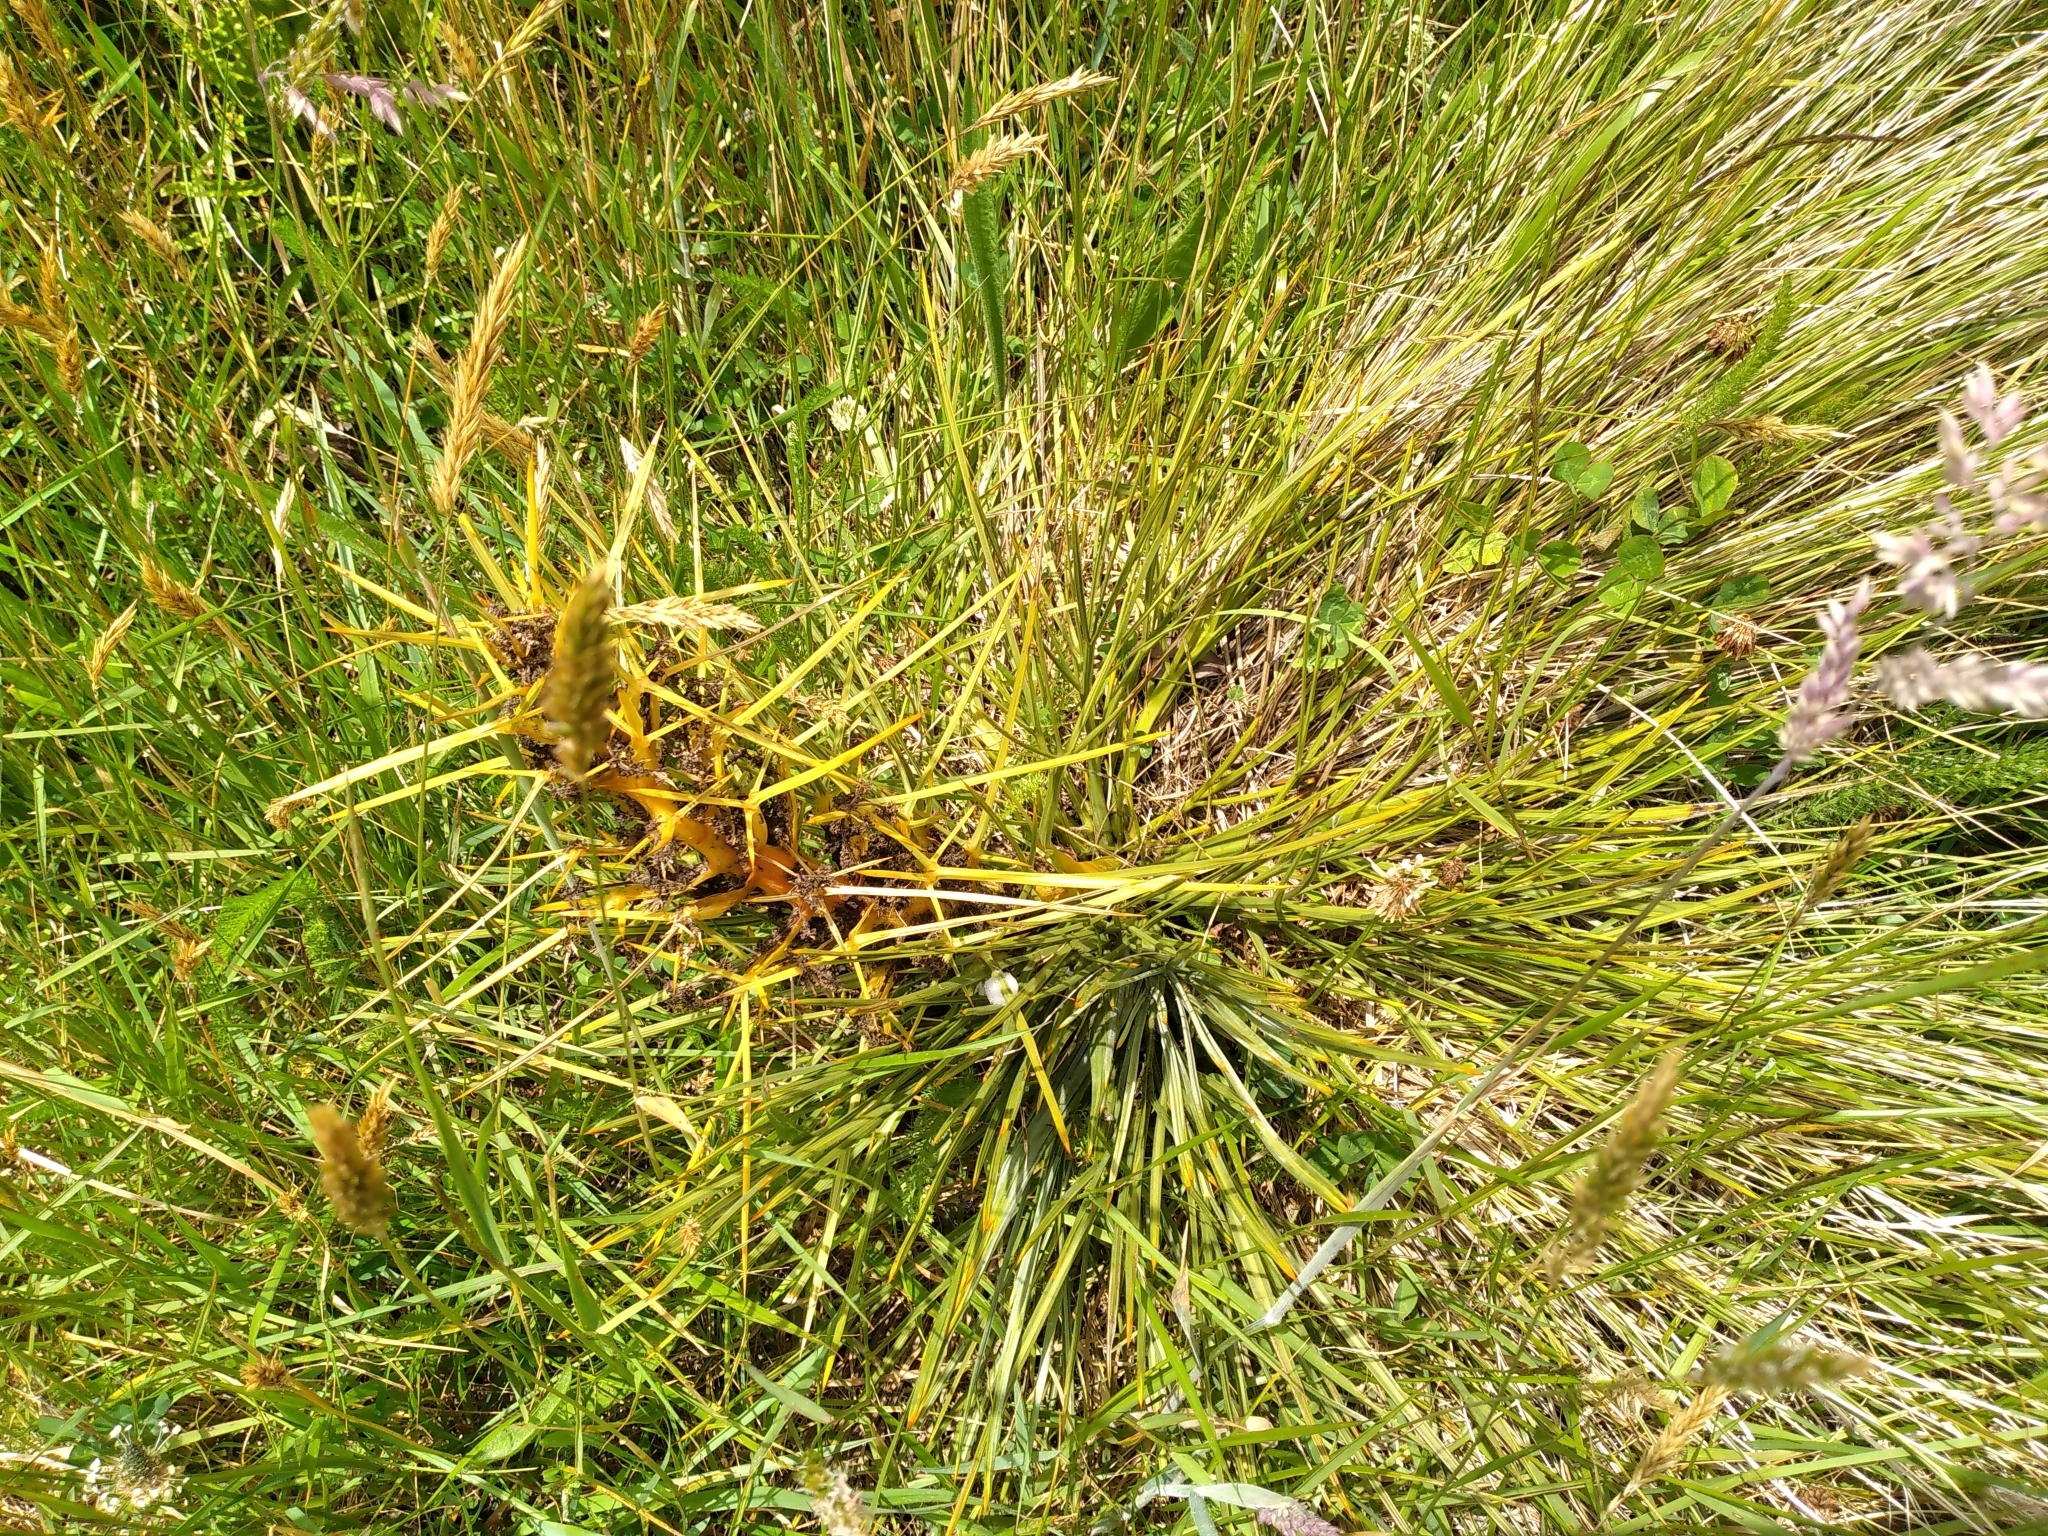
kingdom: Plantae
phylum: Tracheophyta
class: Magnoliopsida
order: Apiales
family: Apiaceae
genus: Aciphylla
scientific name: Aciphylla squarrosa
